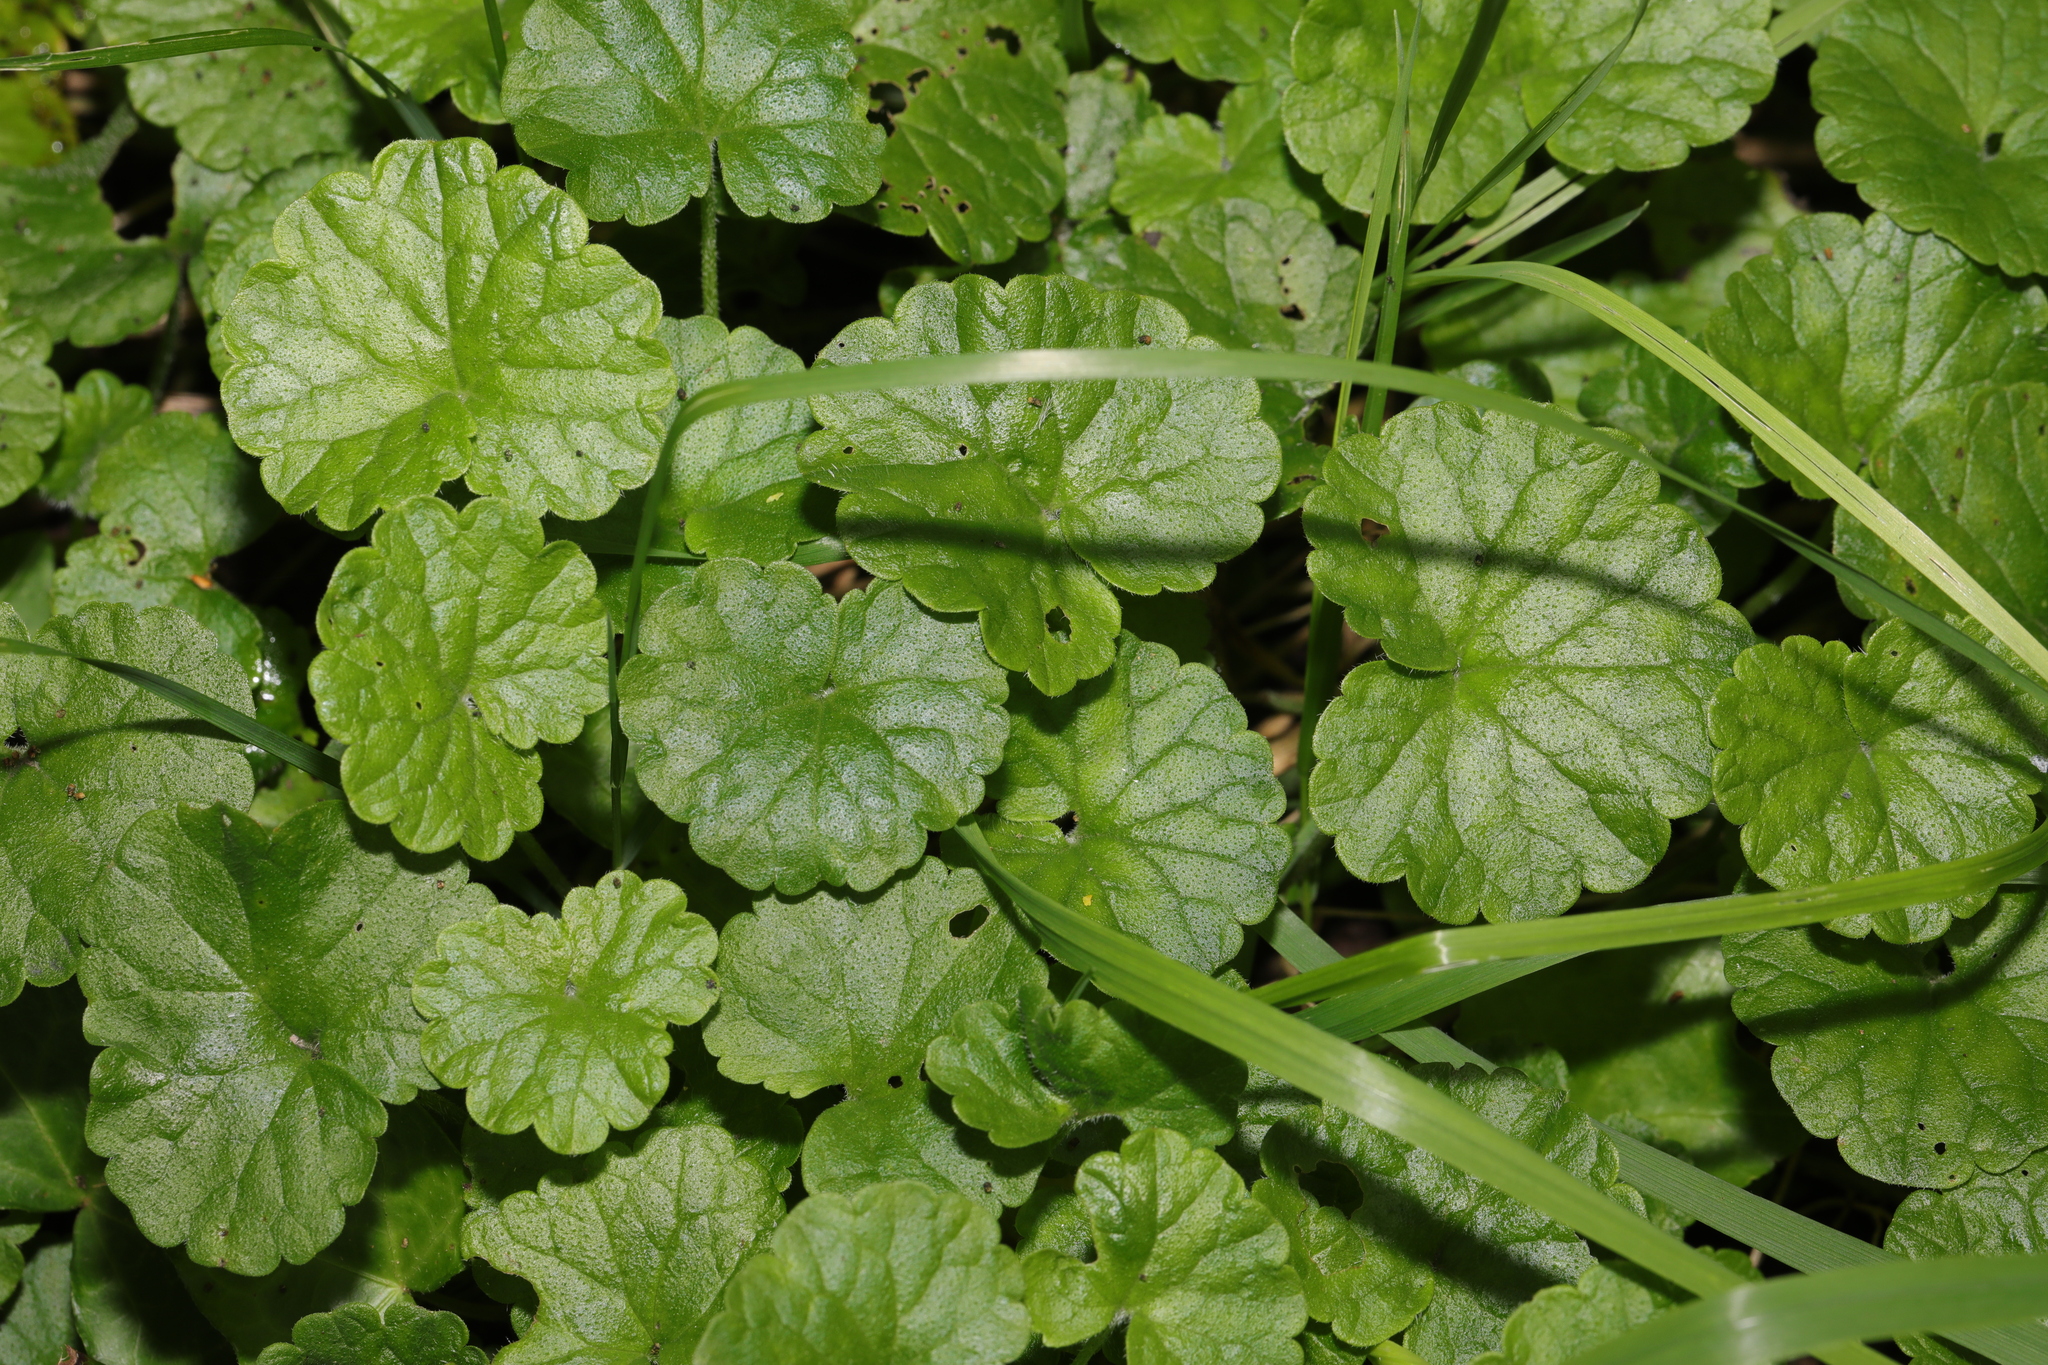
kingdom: Plantae
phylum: Tracheophyta
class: Magnoliopsida
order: Lamiales
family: Lamiaceae
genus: Glechoma
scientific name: Glechoma hederacea
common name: Ground ivy
